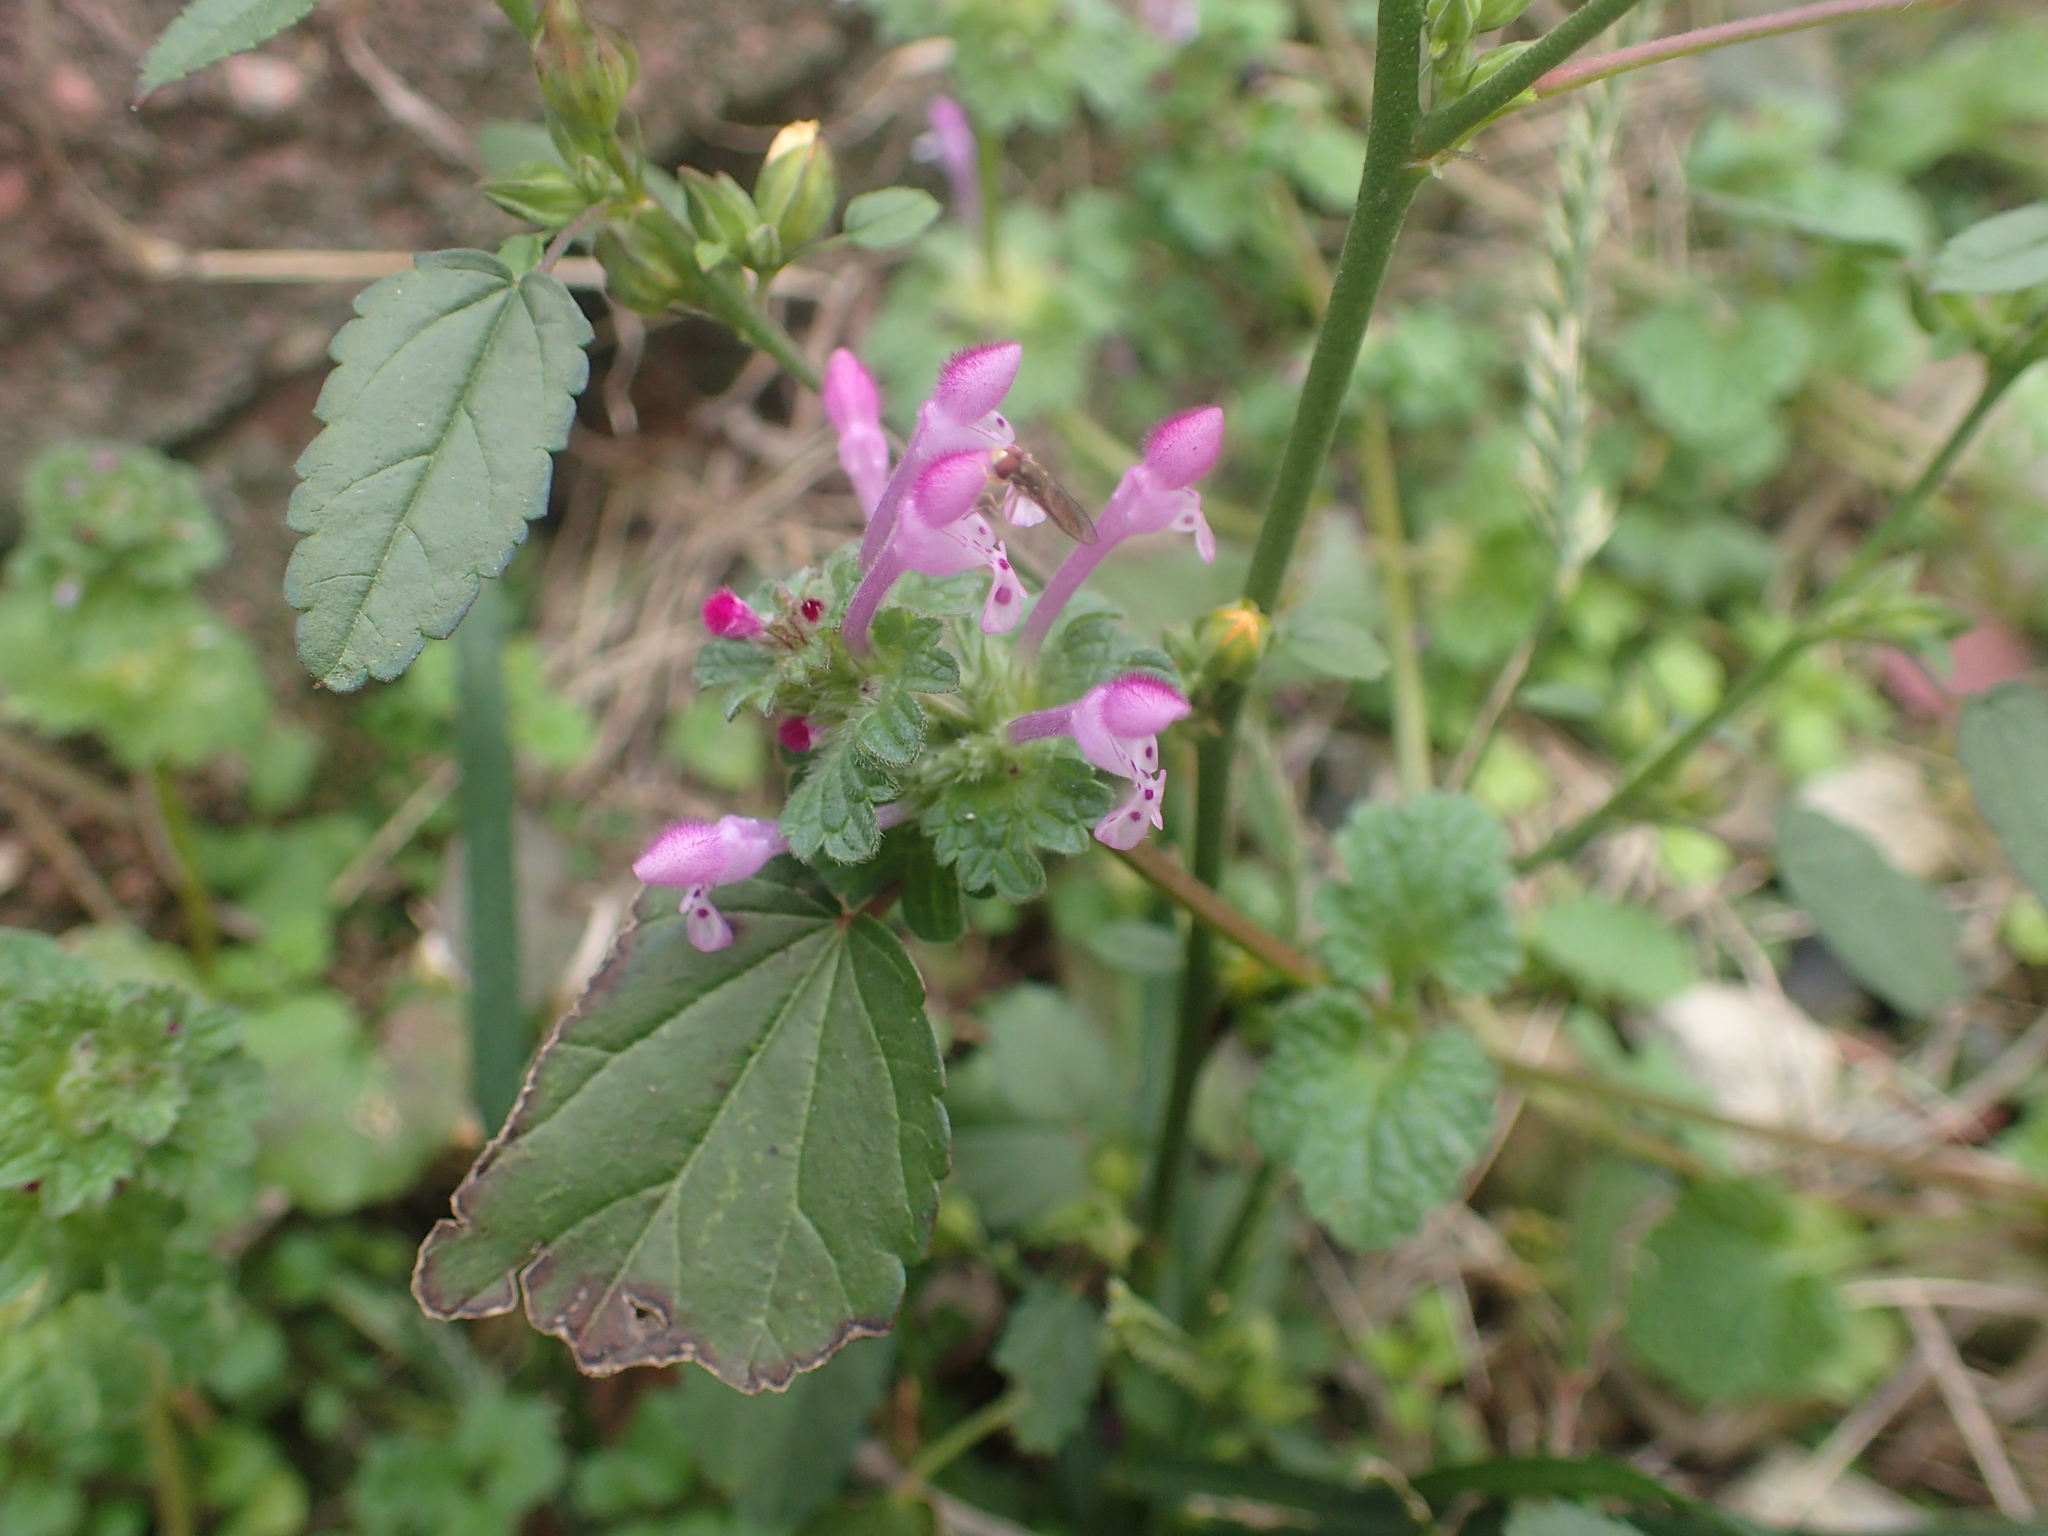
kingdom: Plantae
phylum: Tracheophyta
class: Magnoliopsida
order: Lamiales
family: Lamiaceae
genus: Lamium
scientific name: Lamium amplexicaule
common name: Henbit dead-nettle
